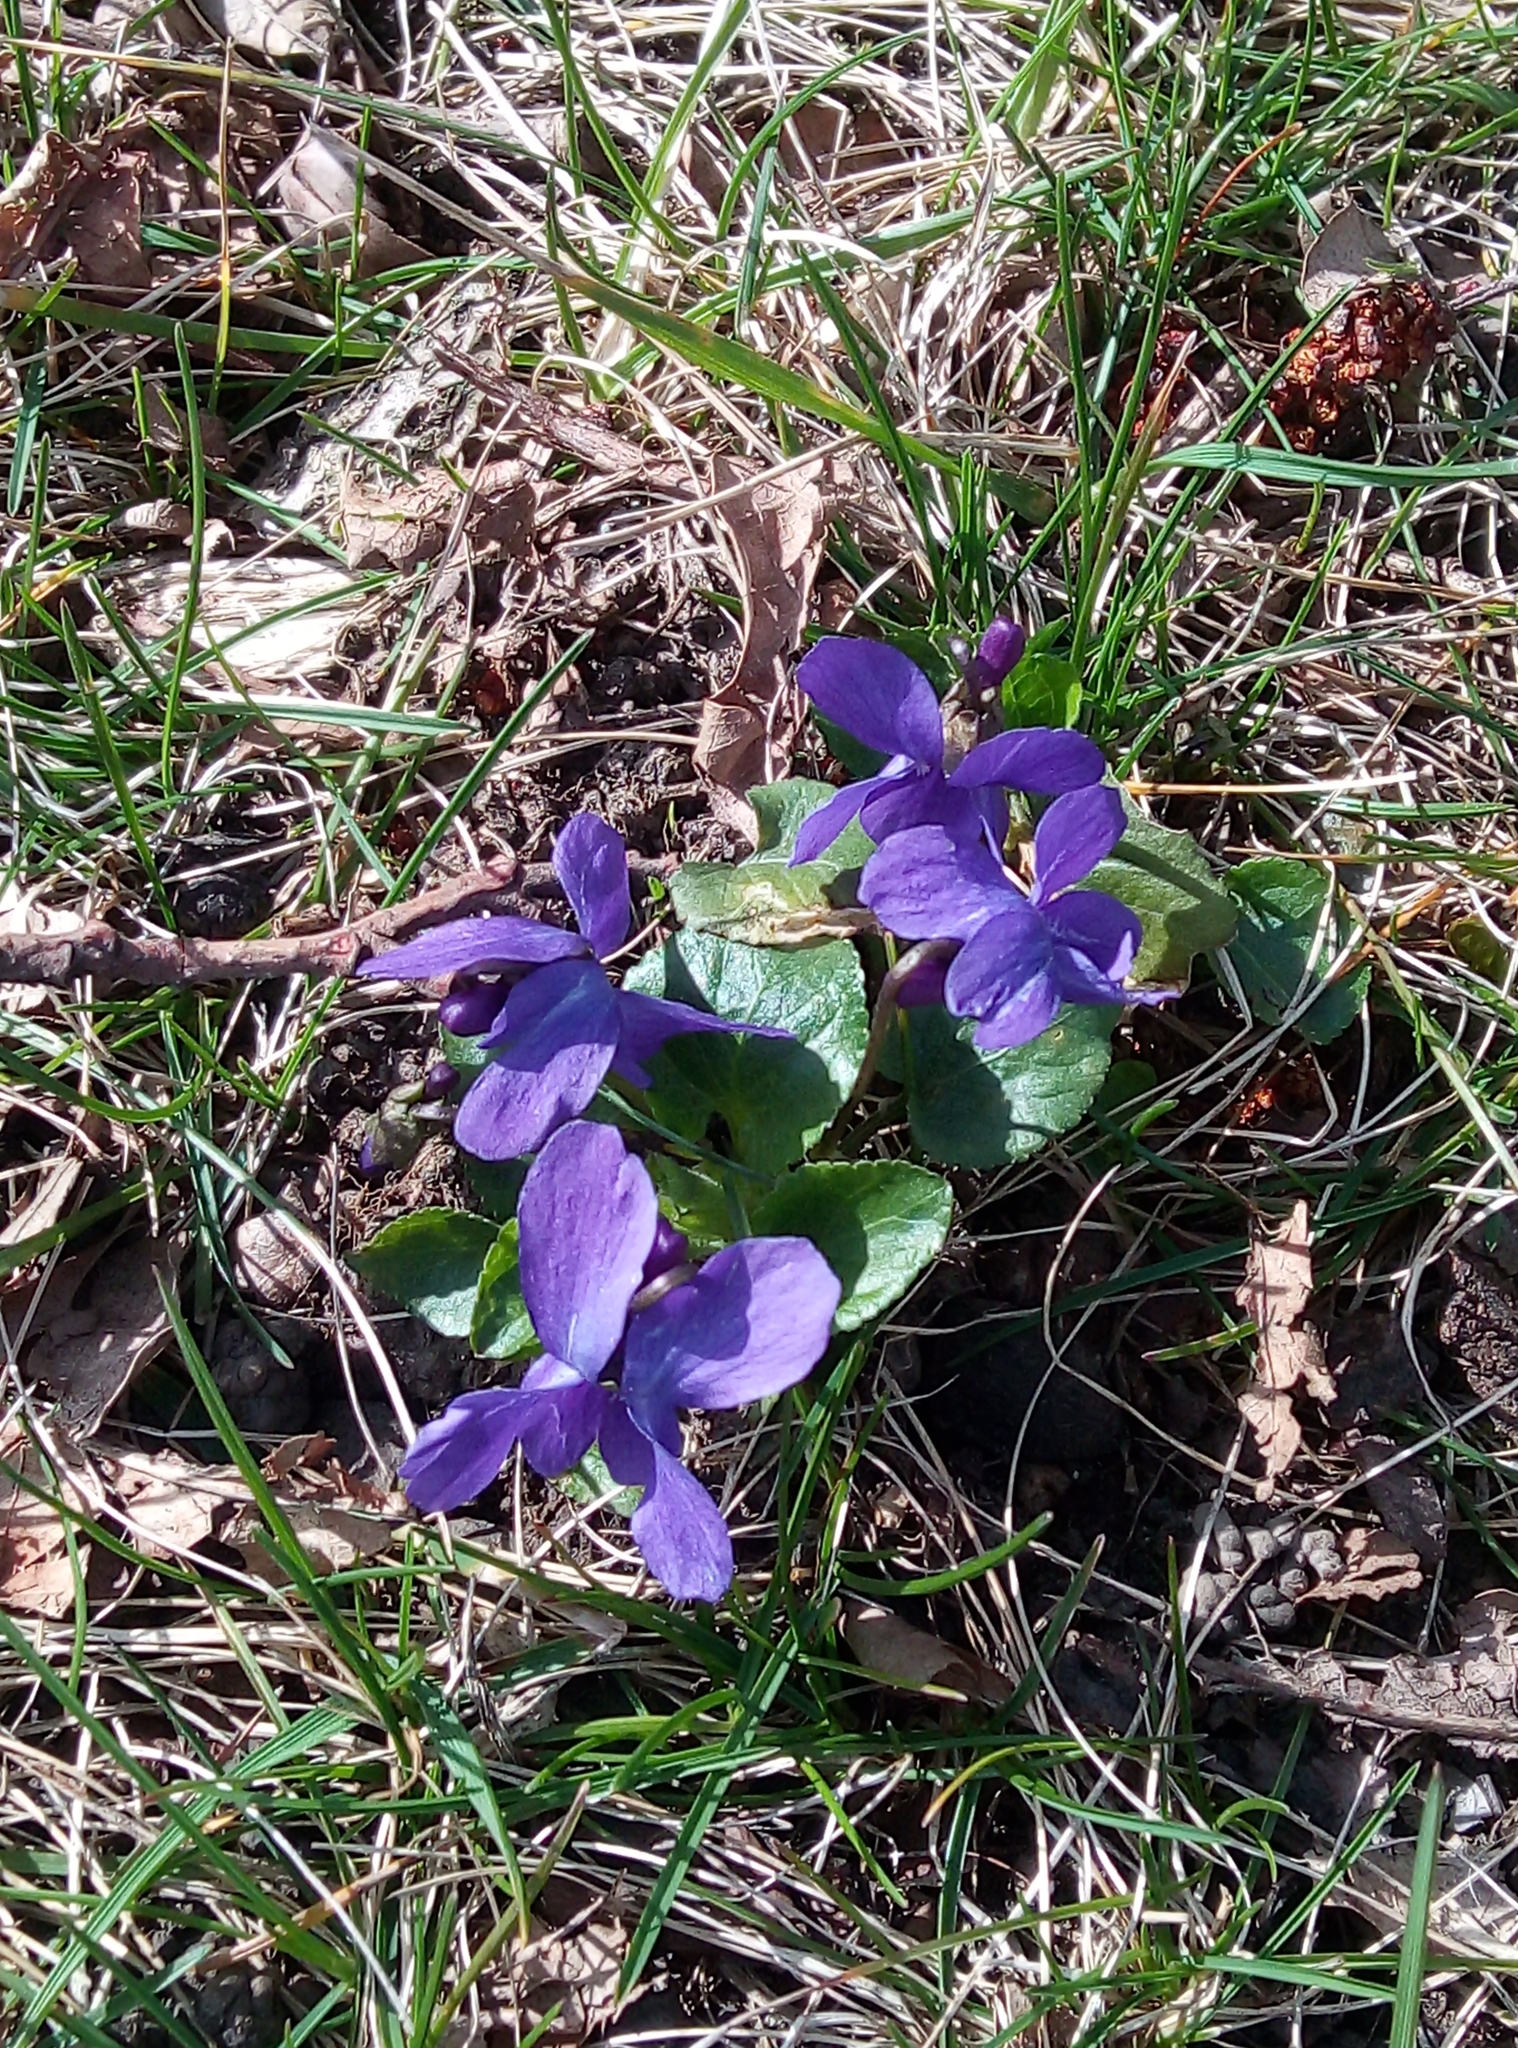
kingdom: Plantae
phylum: Tracheophyta
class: Magnoliopsida
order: Malpighiales
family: Violaceae
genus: Viola
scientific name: Viola odorata
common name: Sweet violet
